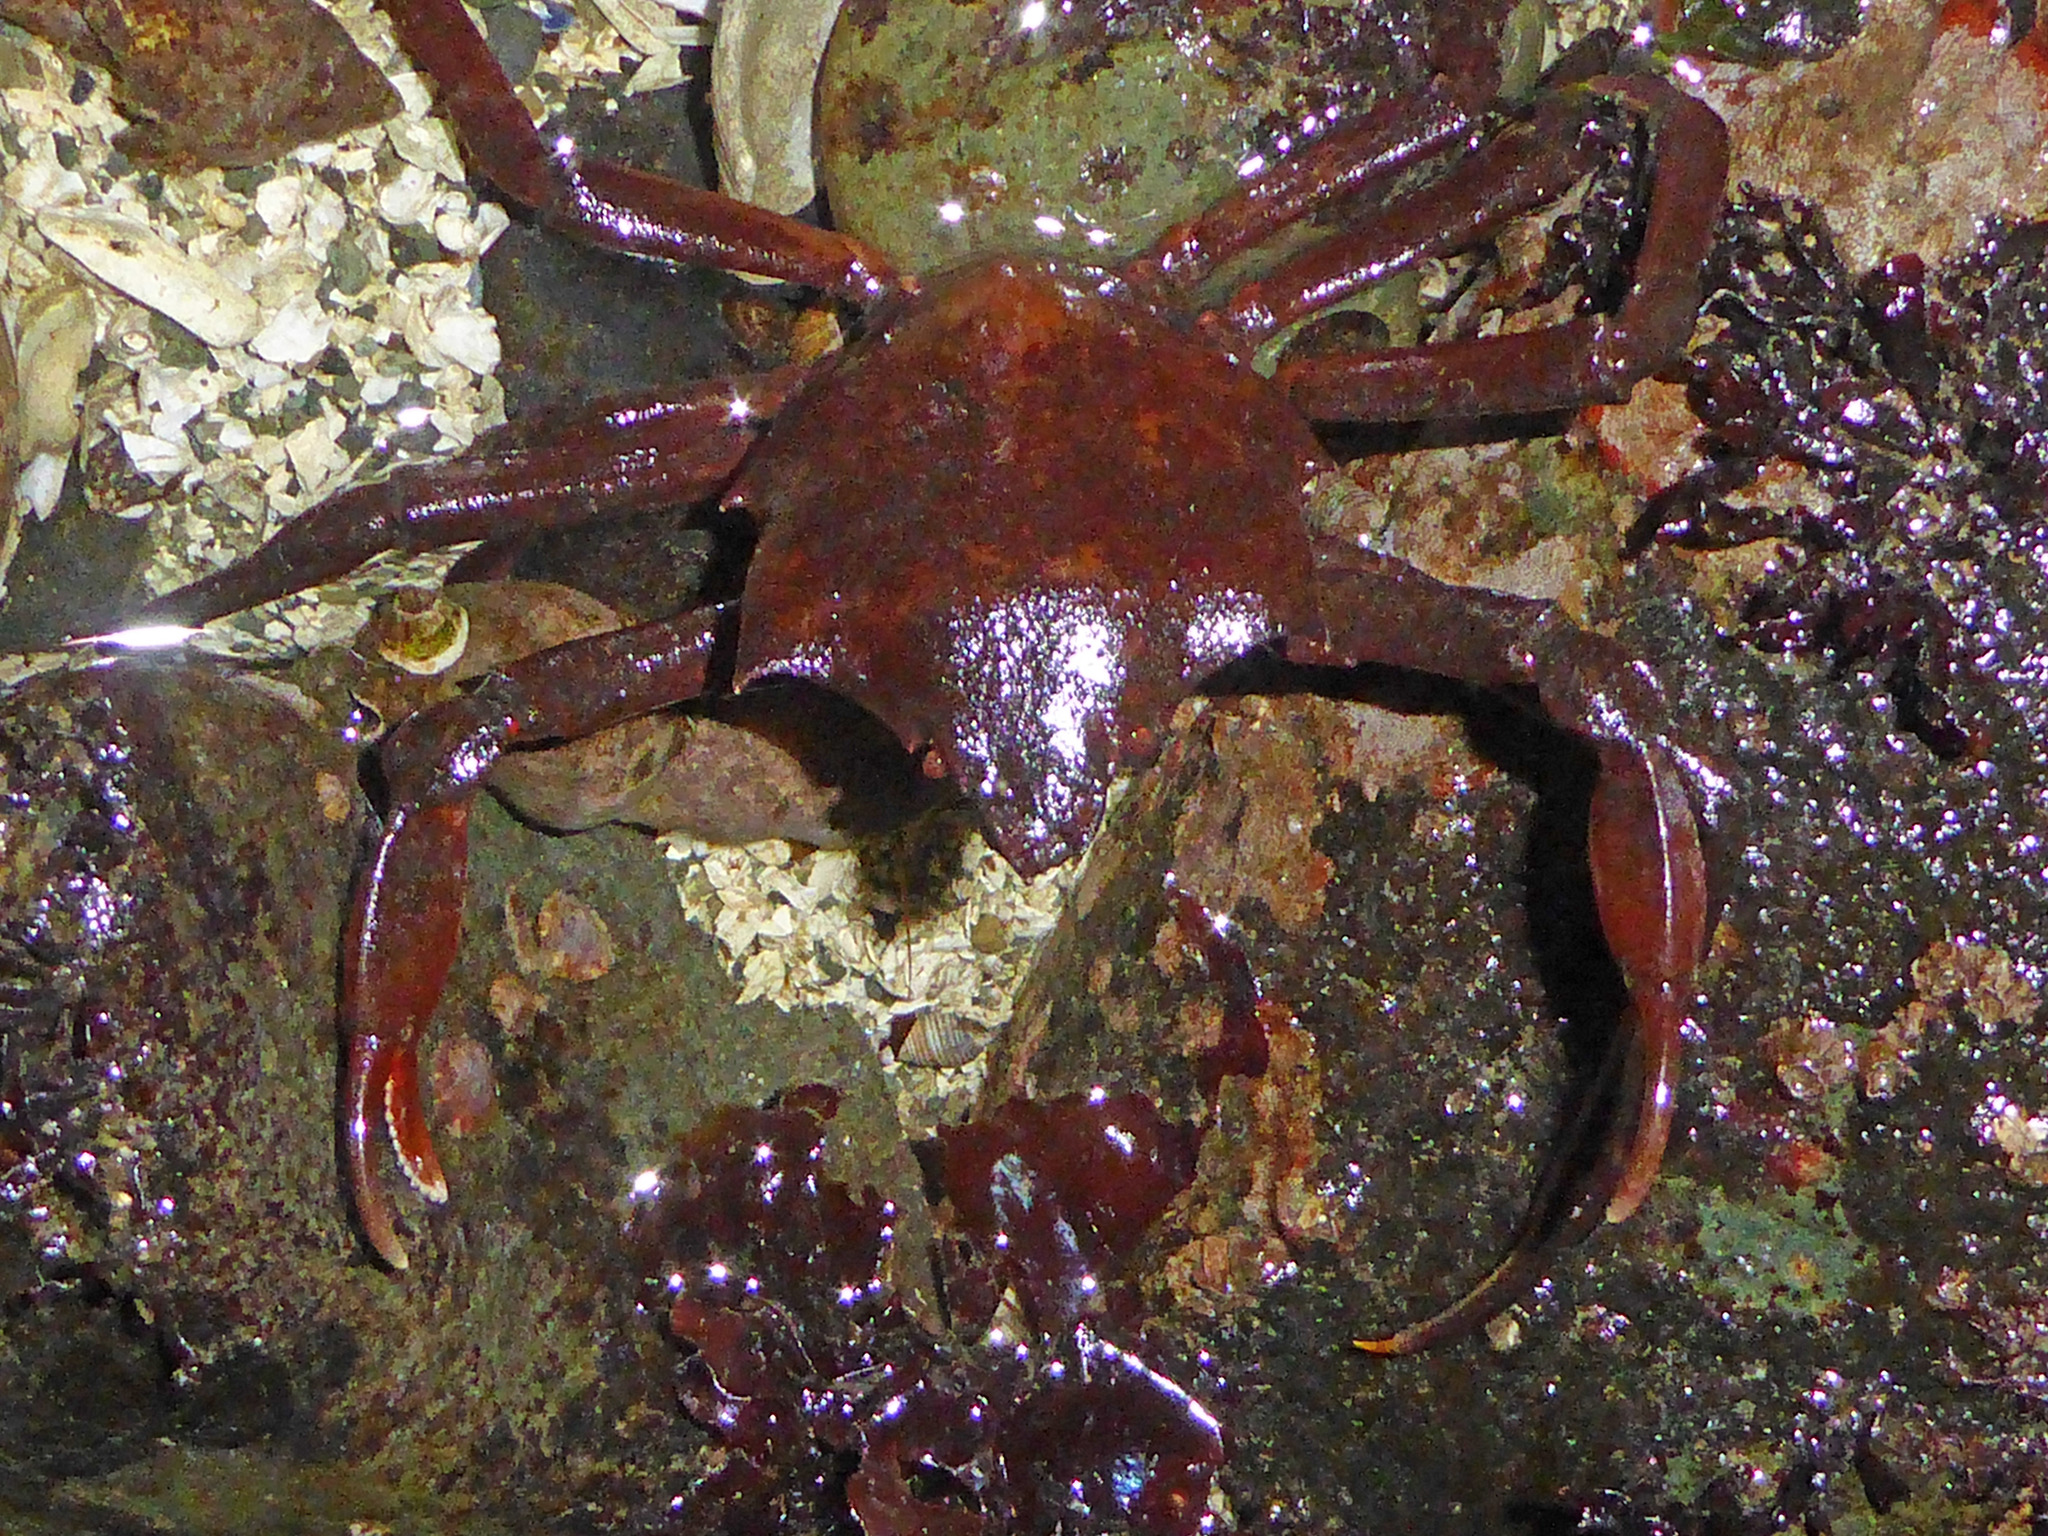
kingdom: Animalia
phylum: Arthropoda
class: Malacostraca
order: Decapoda
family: Epialtidae
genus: Pugettia
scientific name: Pugettia producta
